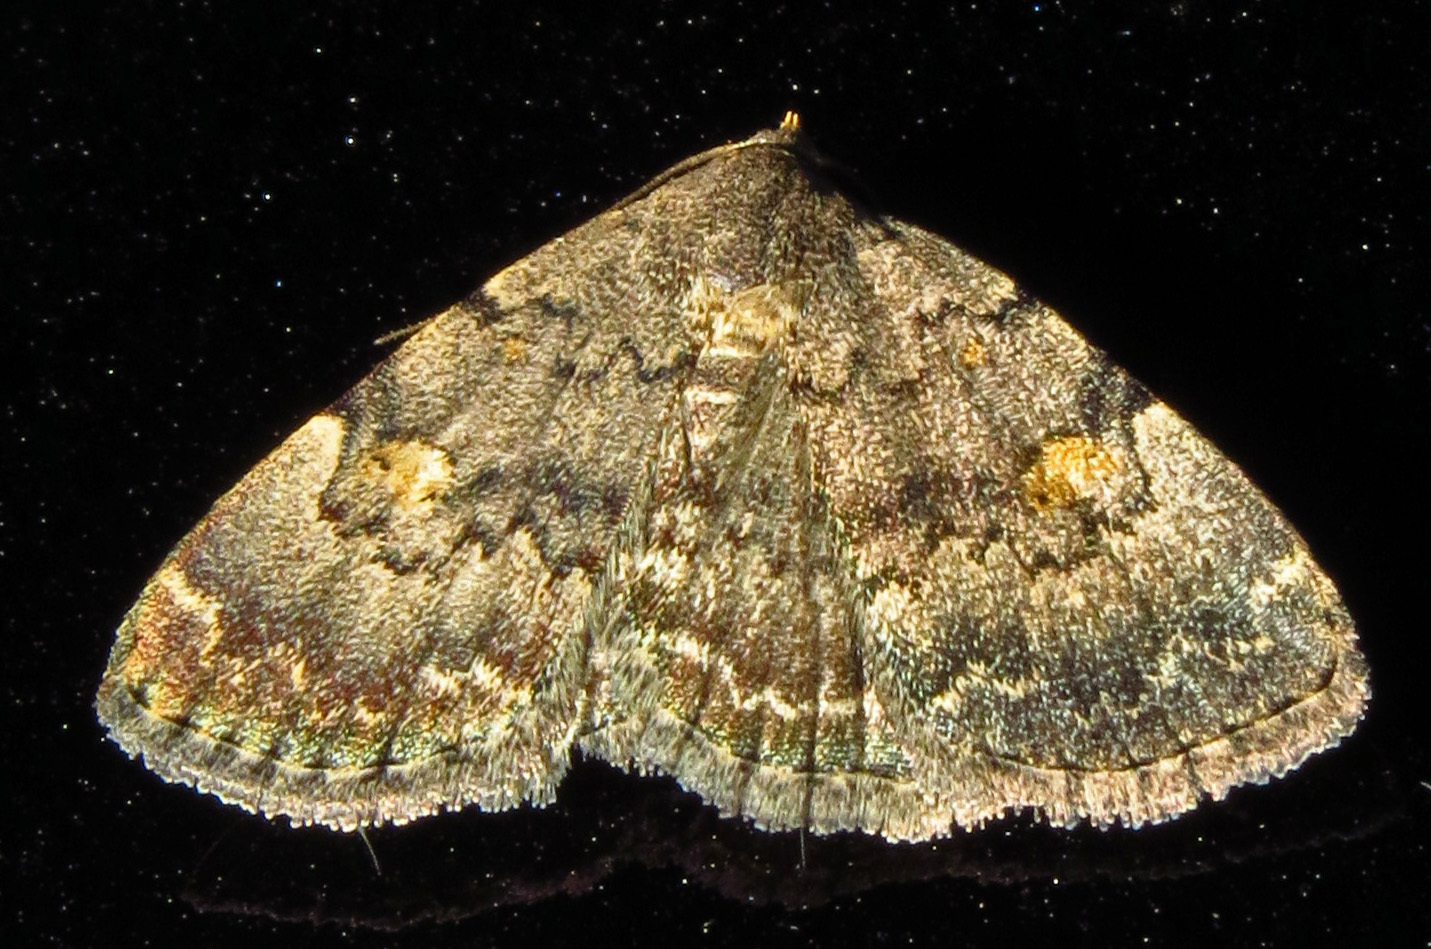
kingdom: Animalia
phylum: Arthropoda
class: Insecta
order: Lepidoptera
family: Erebidae
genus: Idia
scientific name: Idia aemula
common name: Common idia moth
